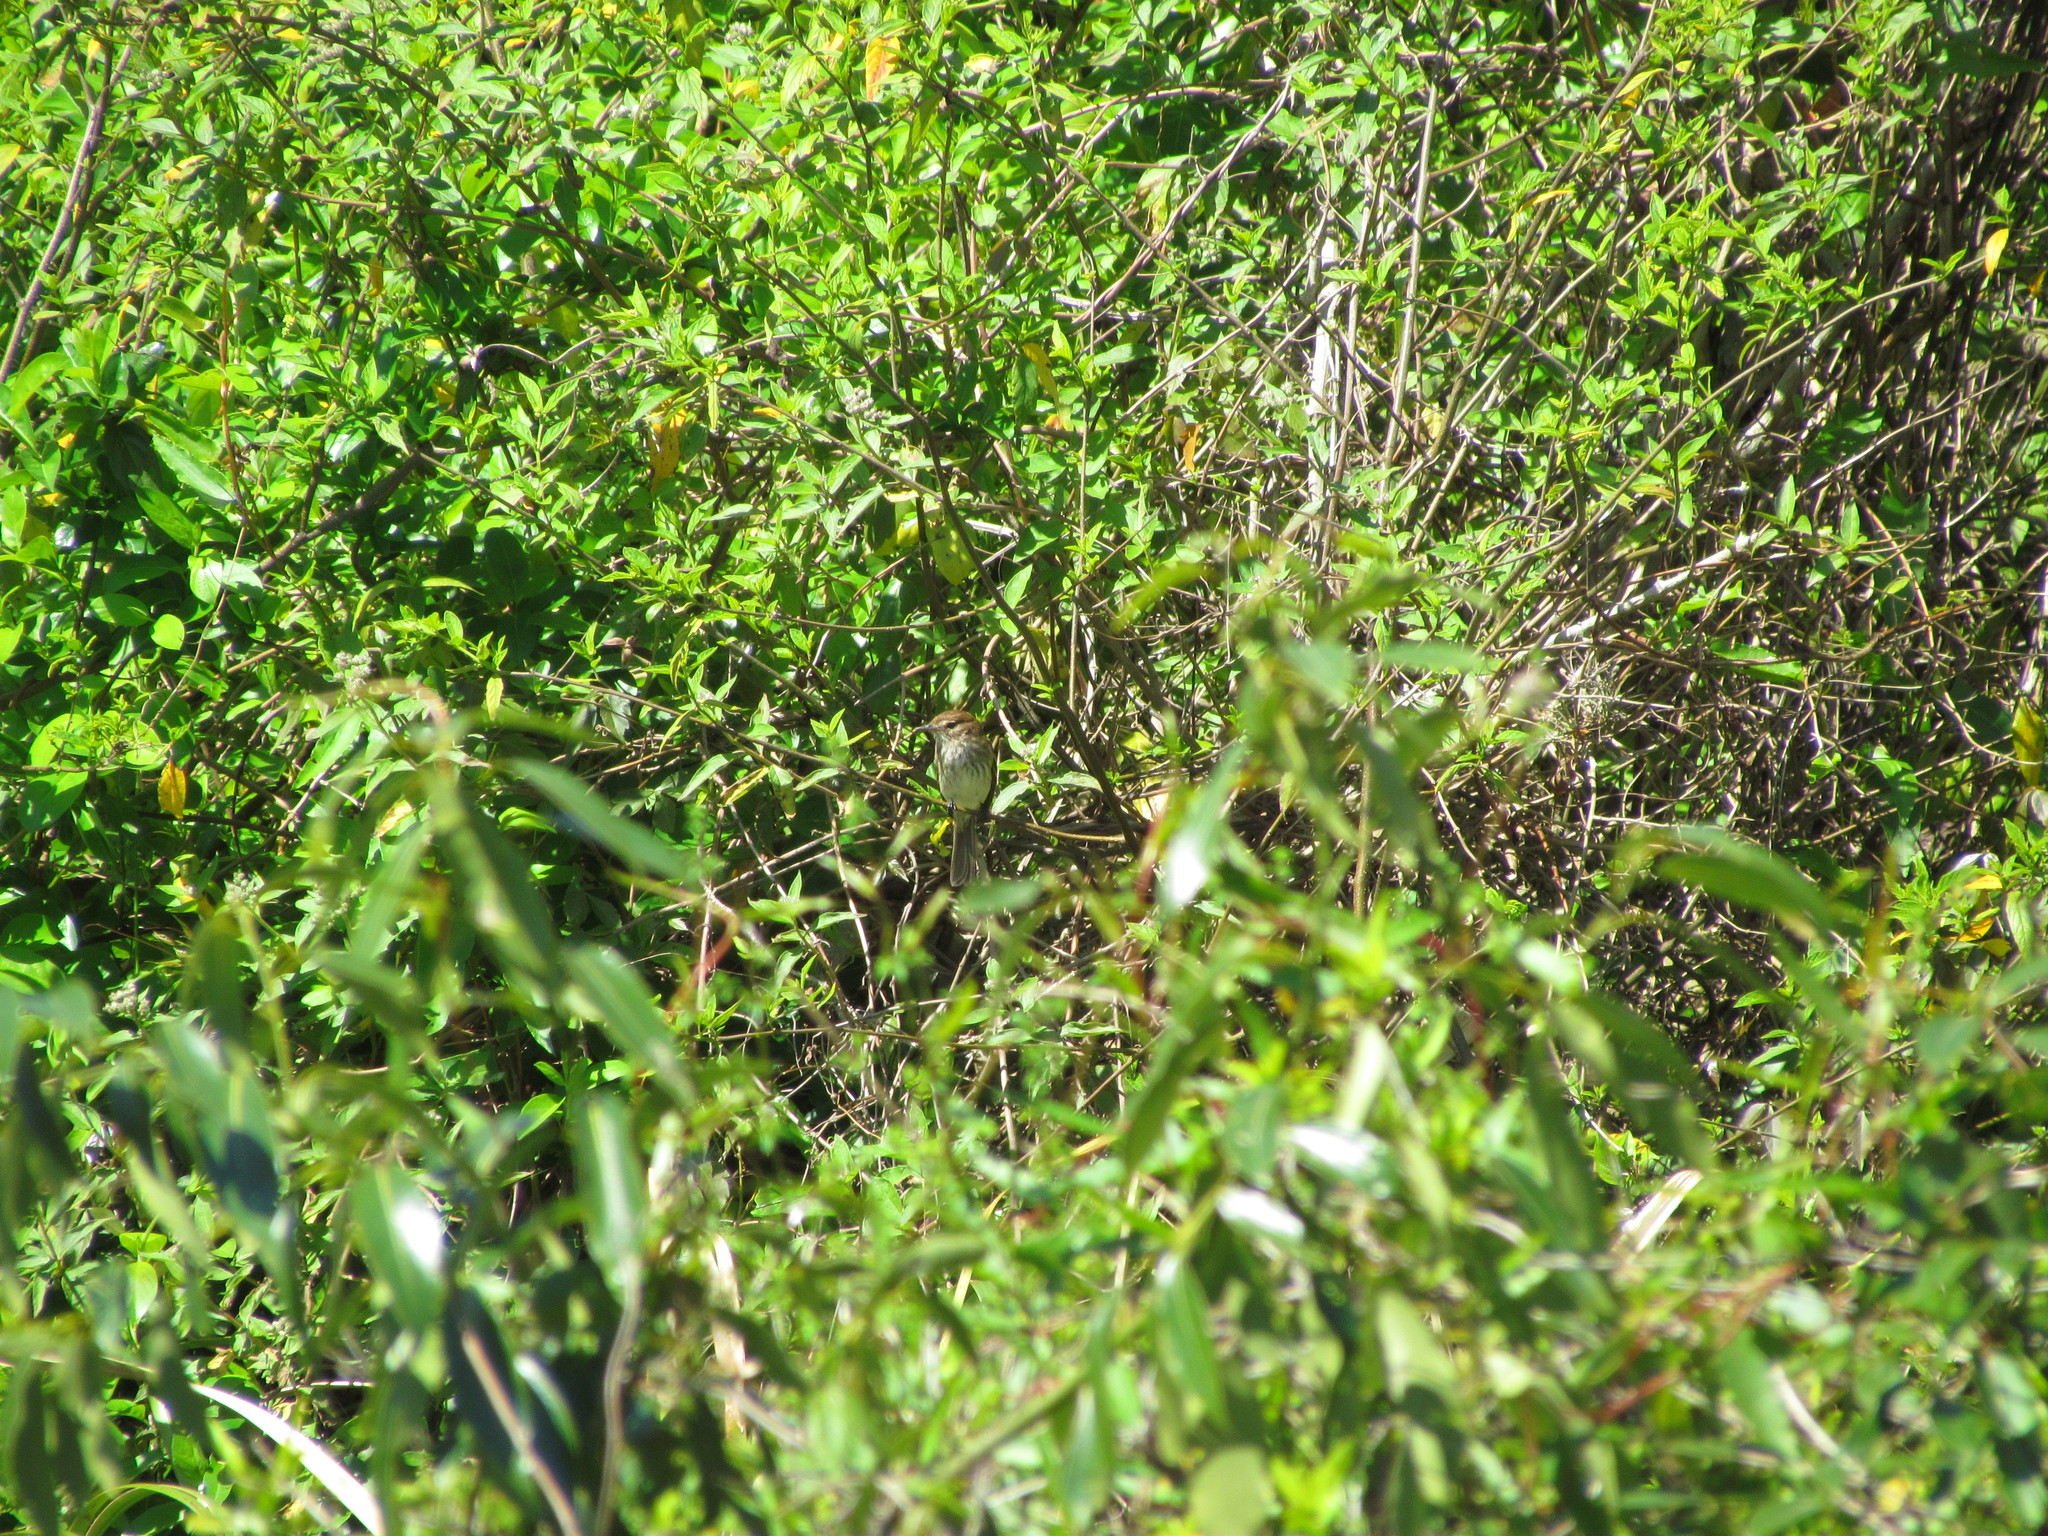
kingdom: Animalia
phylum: Chordata
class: Aves
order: Passeriformes
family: Tyrannidae
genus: Myiophobus
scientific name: Myiophobus fasciatus
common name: Bran-colored flycatcher
